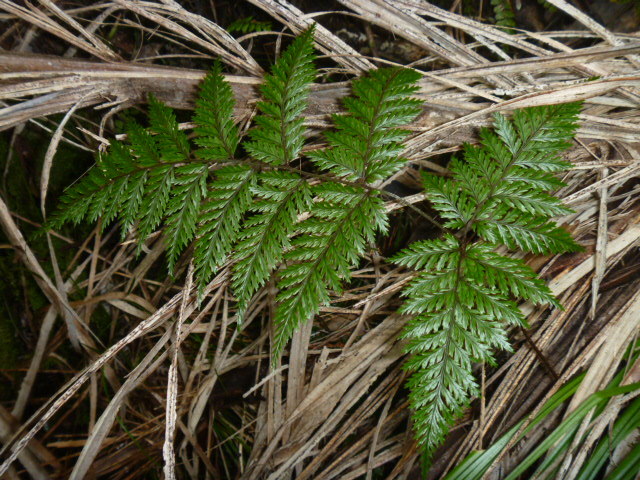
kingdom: Plantae
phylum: Tracheophyta
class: Polypodiopsida
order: Polypodiales
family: Dryopteridaceae
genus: Lastreopsis
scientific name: Lastreopsis hispida
